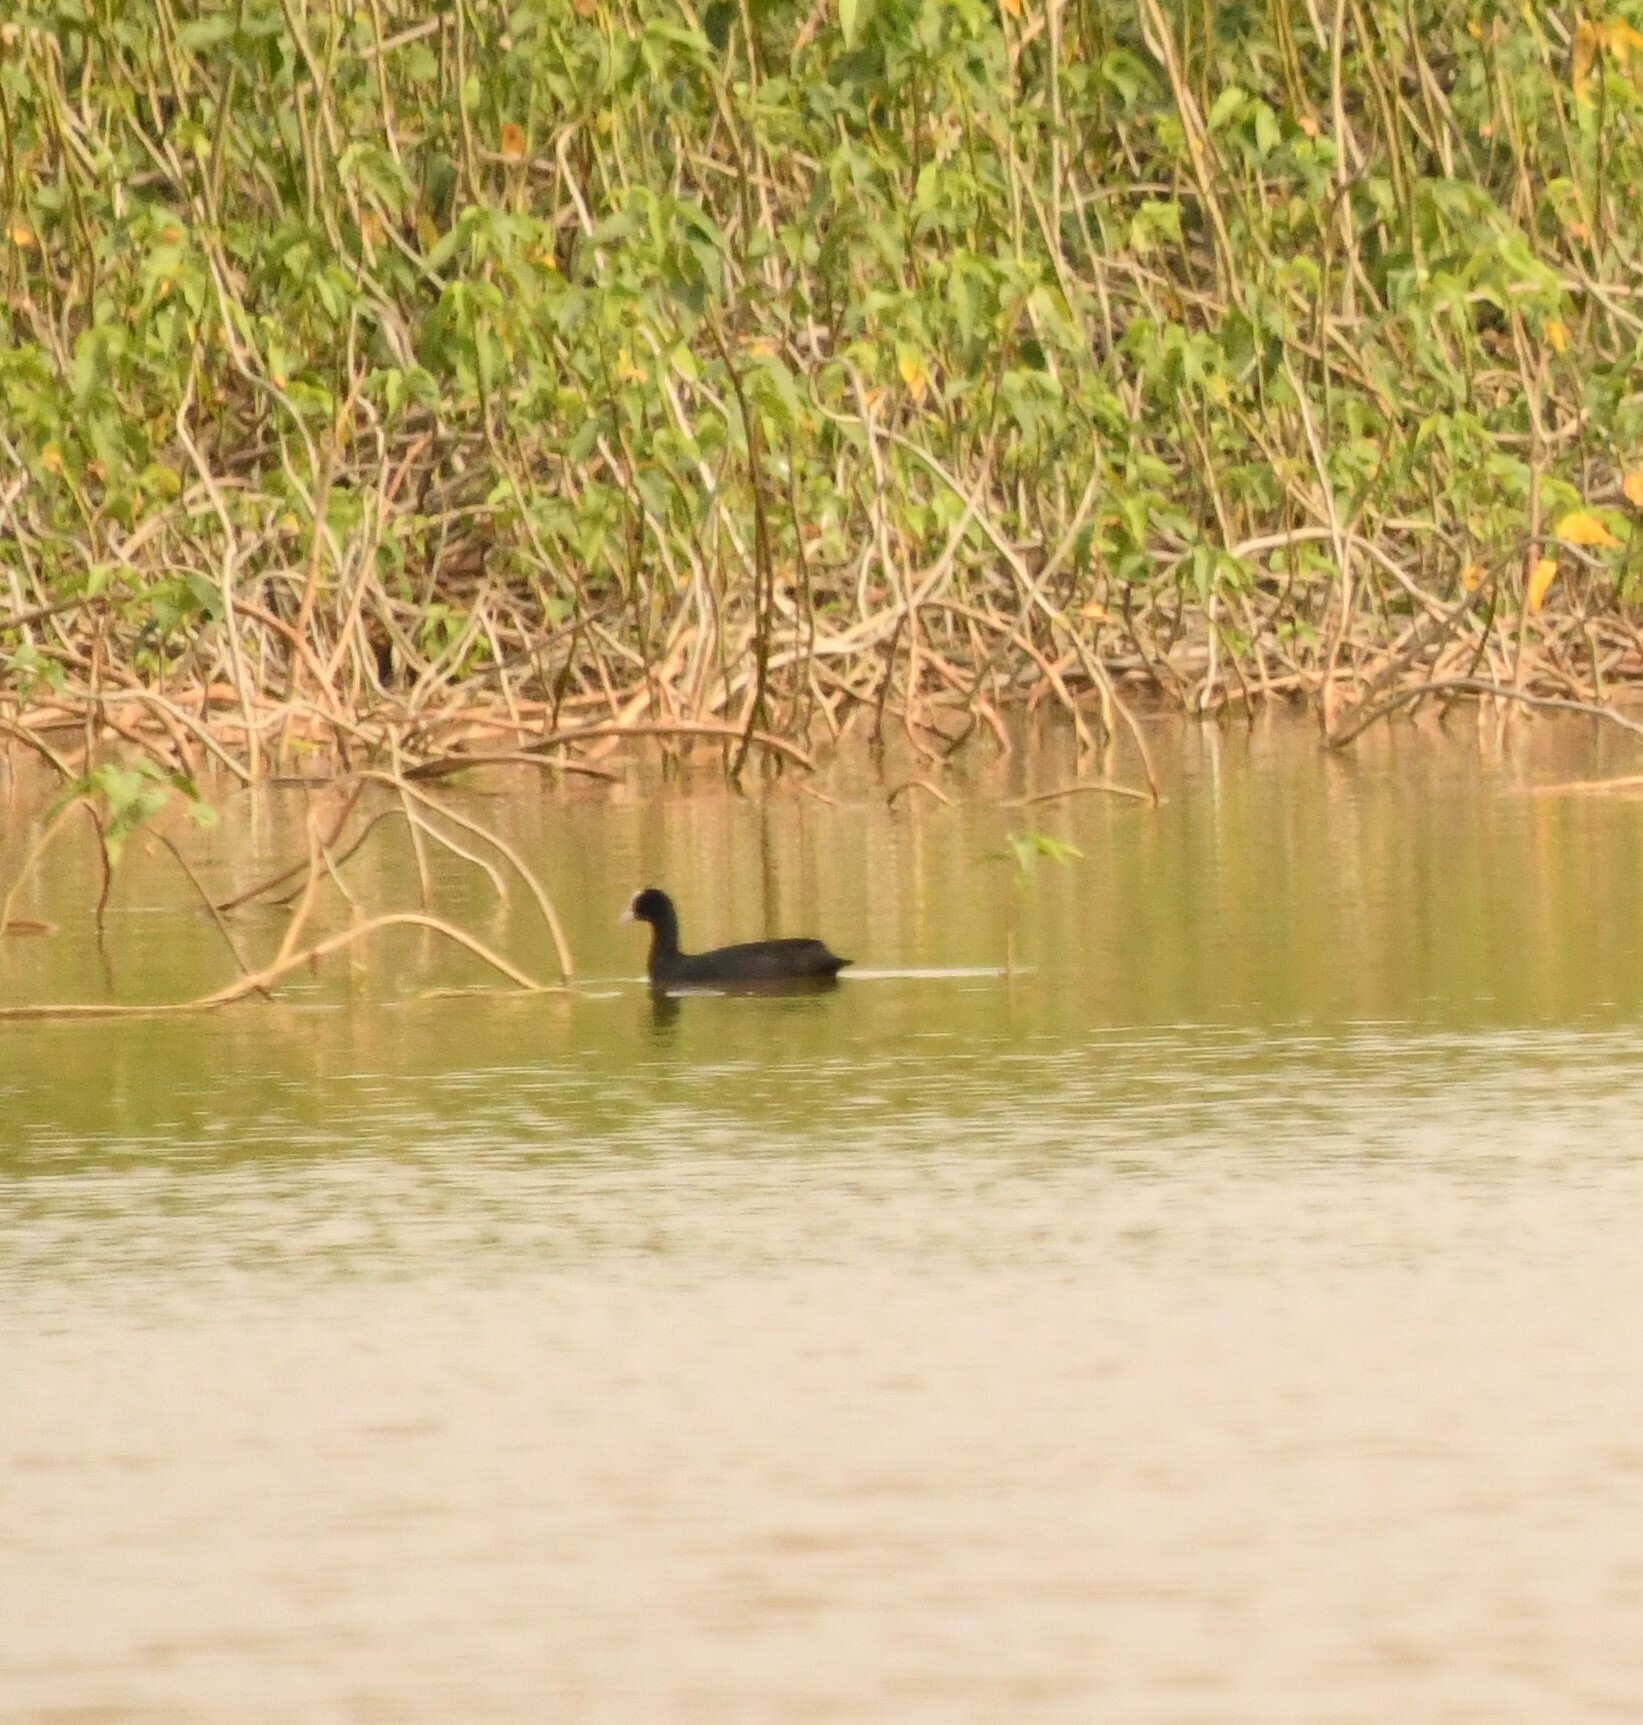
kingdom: Animalia
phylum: Chordata
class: Aves
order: Gruiformes
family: Rallidae
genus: Fulica
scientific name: Fulica atra
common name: Eurasian coot
